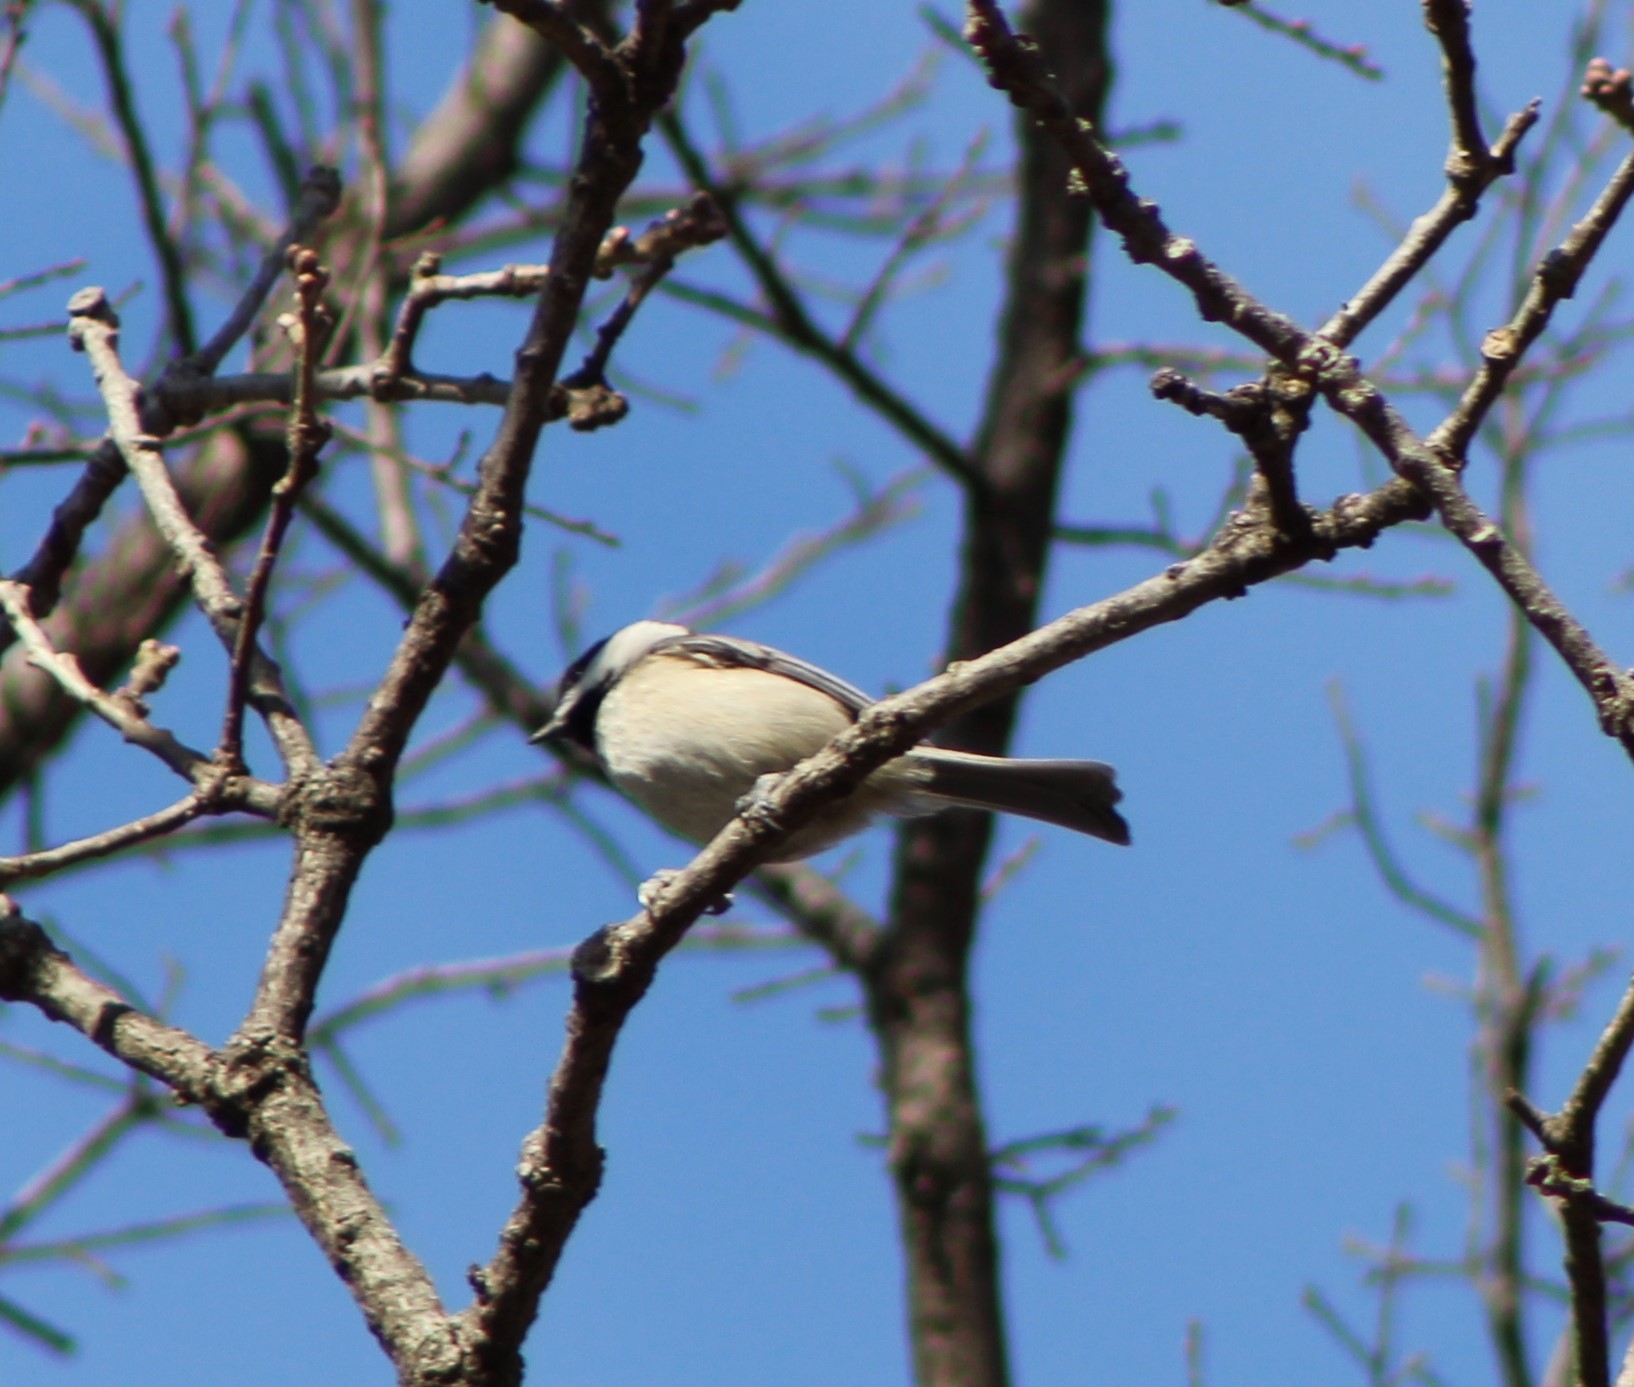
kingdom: Animalia
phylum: Chordata
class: Aves
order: Passeriformes
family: Paridae
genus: Poecile
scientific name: Poecile carolinensis
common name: Carolina chickadee
